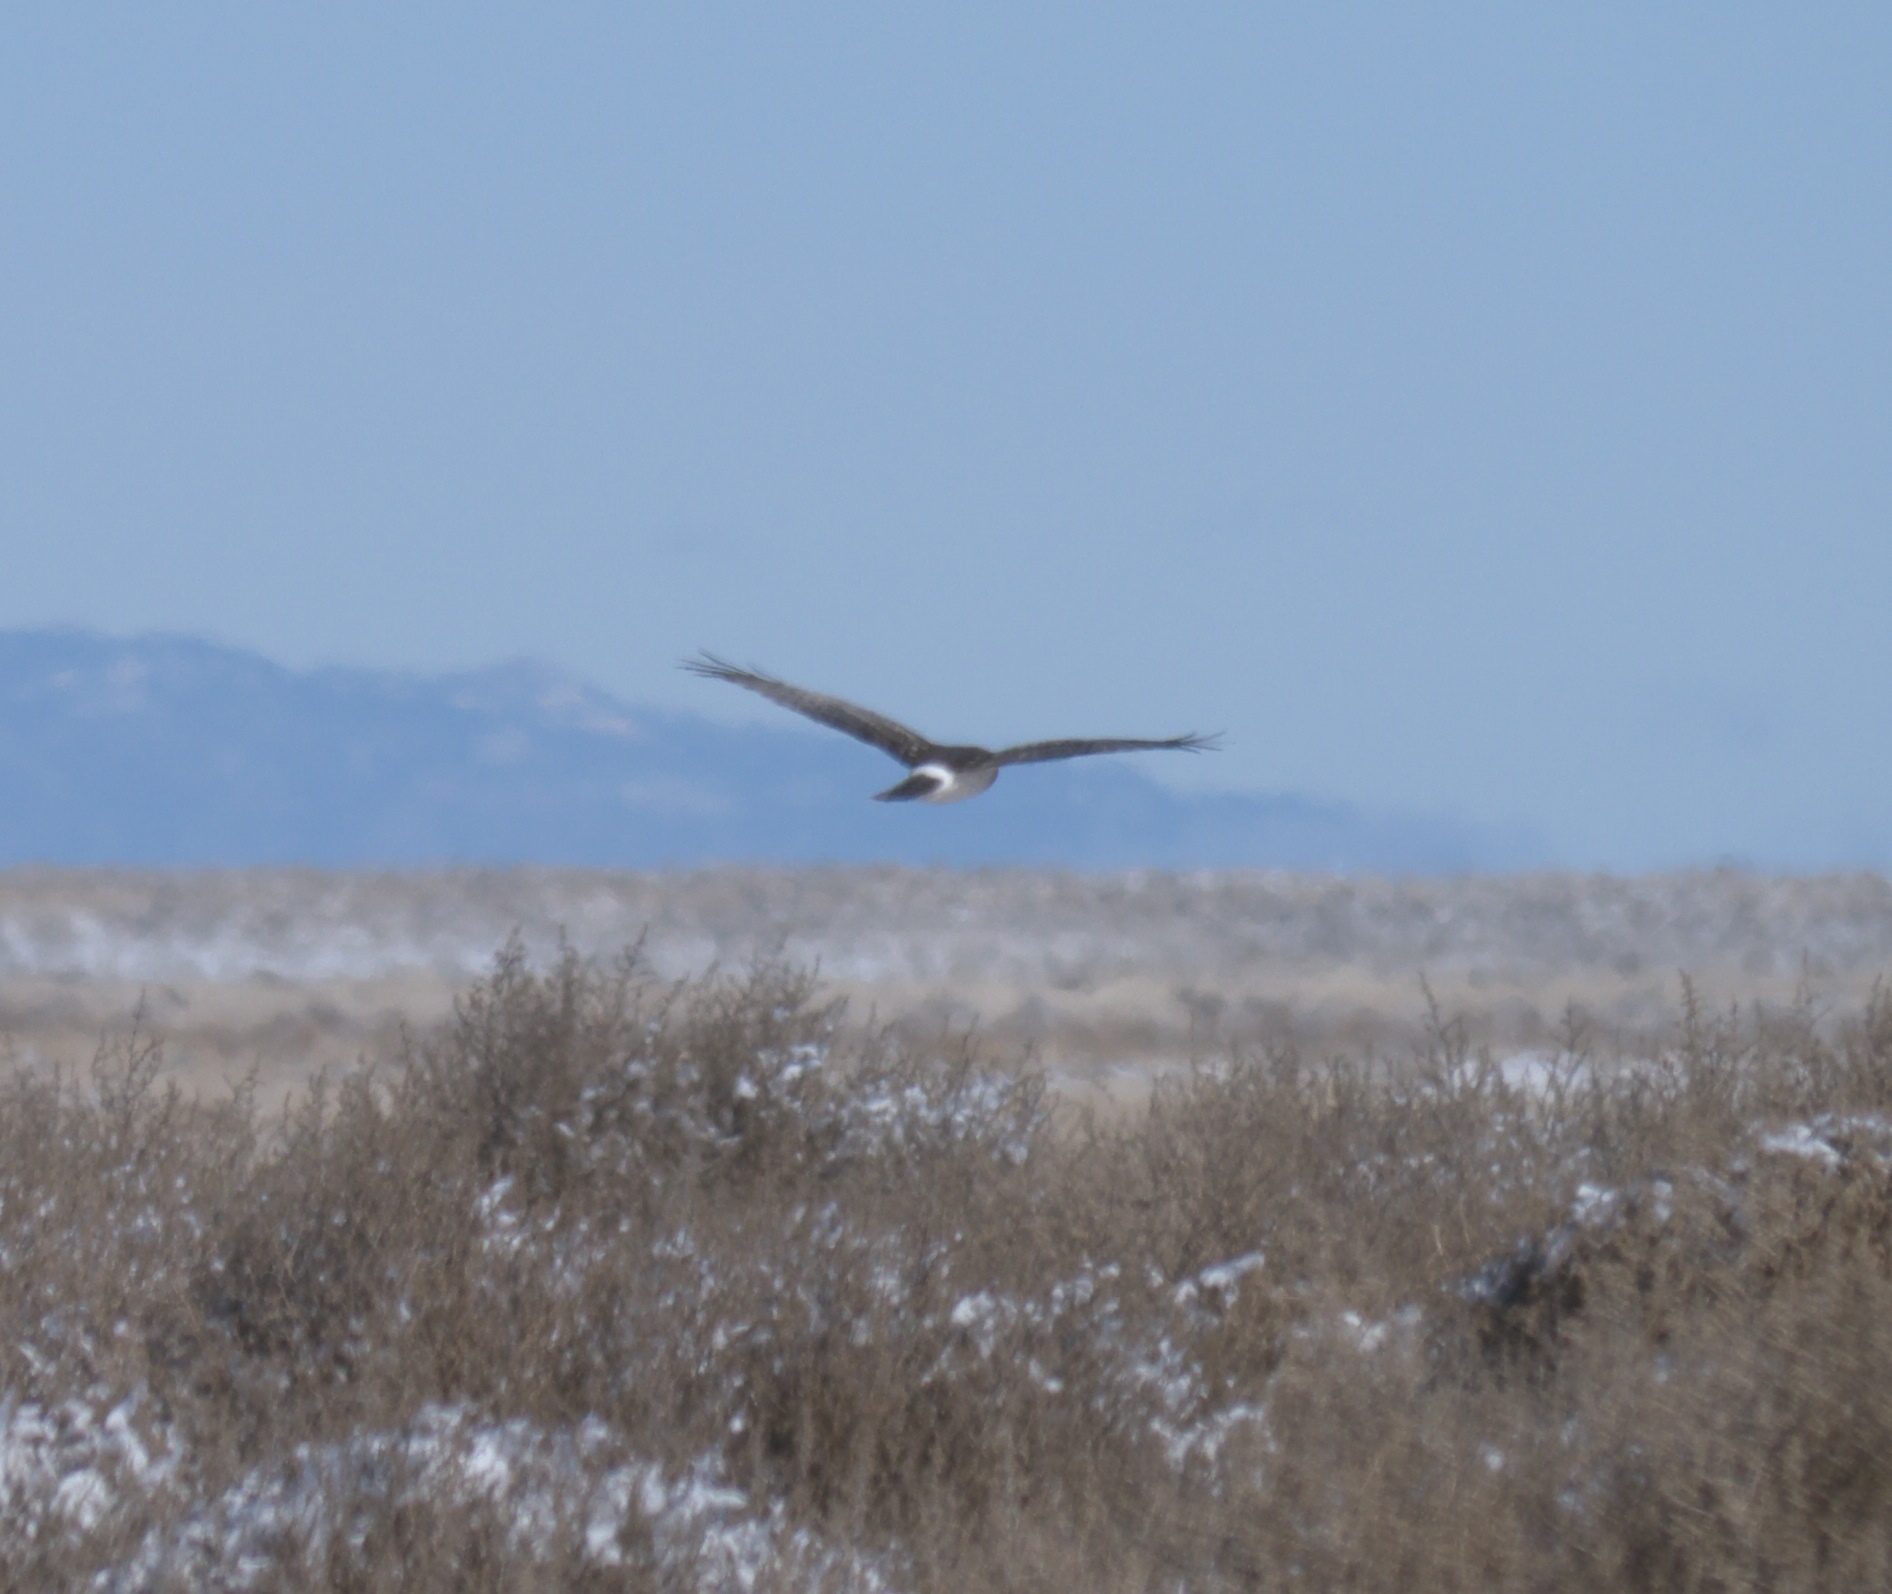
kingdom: Animalia
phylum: Chordata
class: Aves
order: Accipitriformes
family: Accipitridae
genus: Circus
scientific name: Circus cyaneus
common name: Hen harrier
